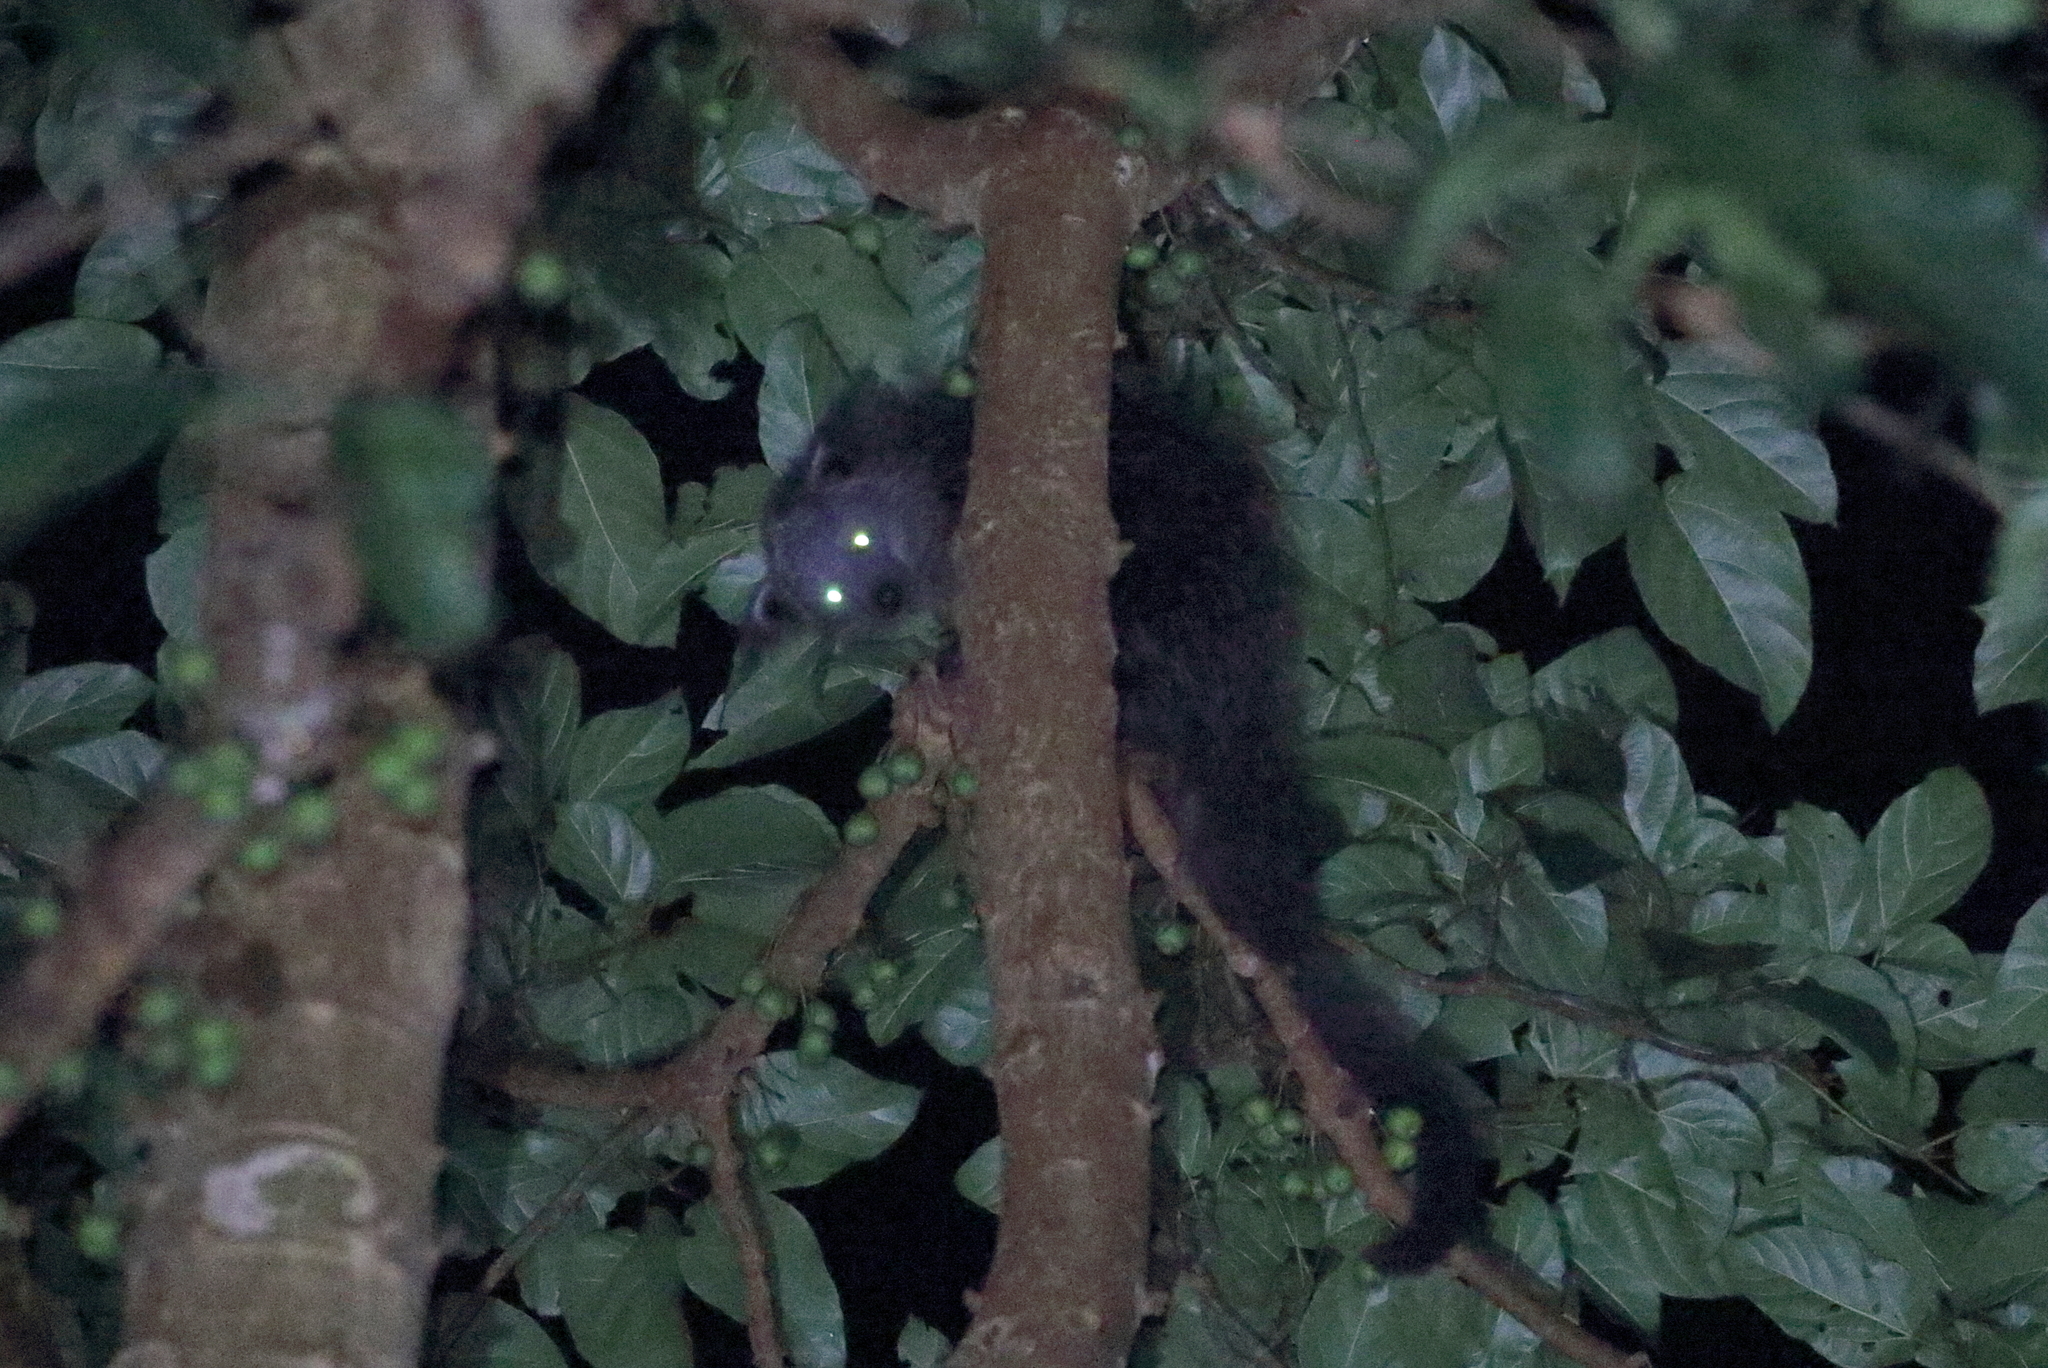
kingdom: Animalia
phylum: Chordata
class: Mammalia
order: Carnivora
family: Viverridae
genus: Arctictis
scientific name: Arctictis binturong
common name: Binturong
